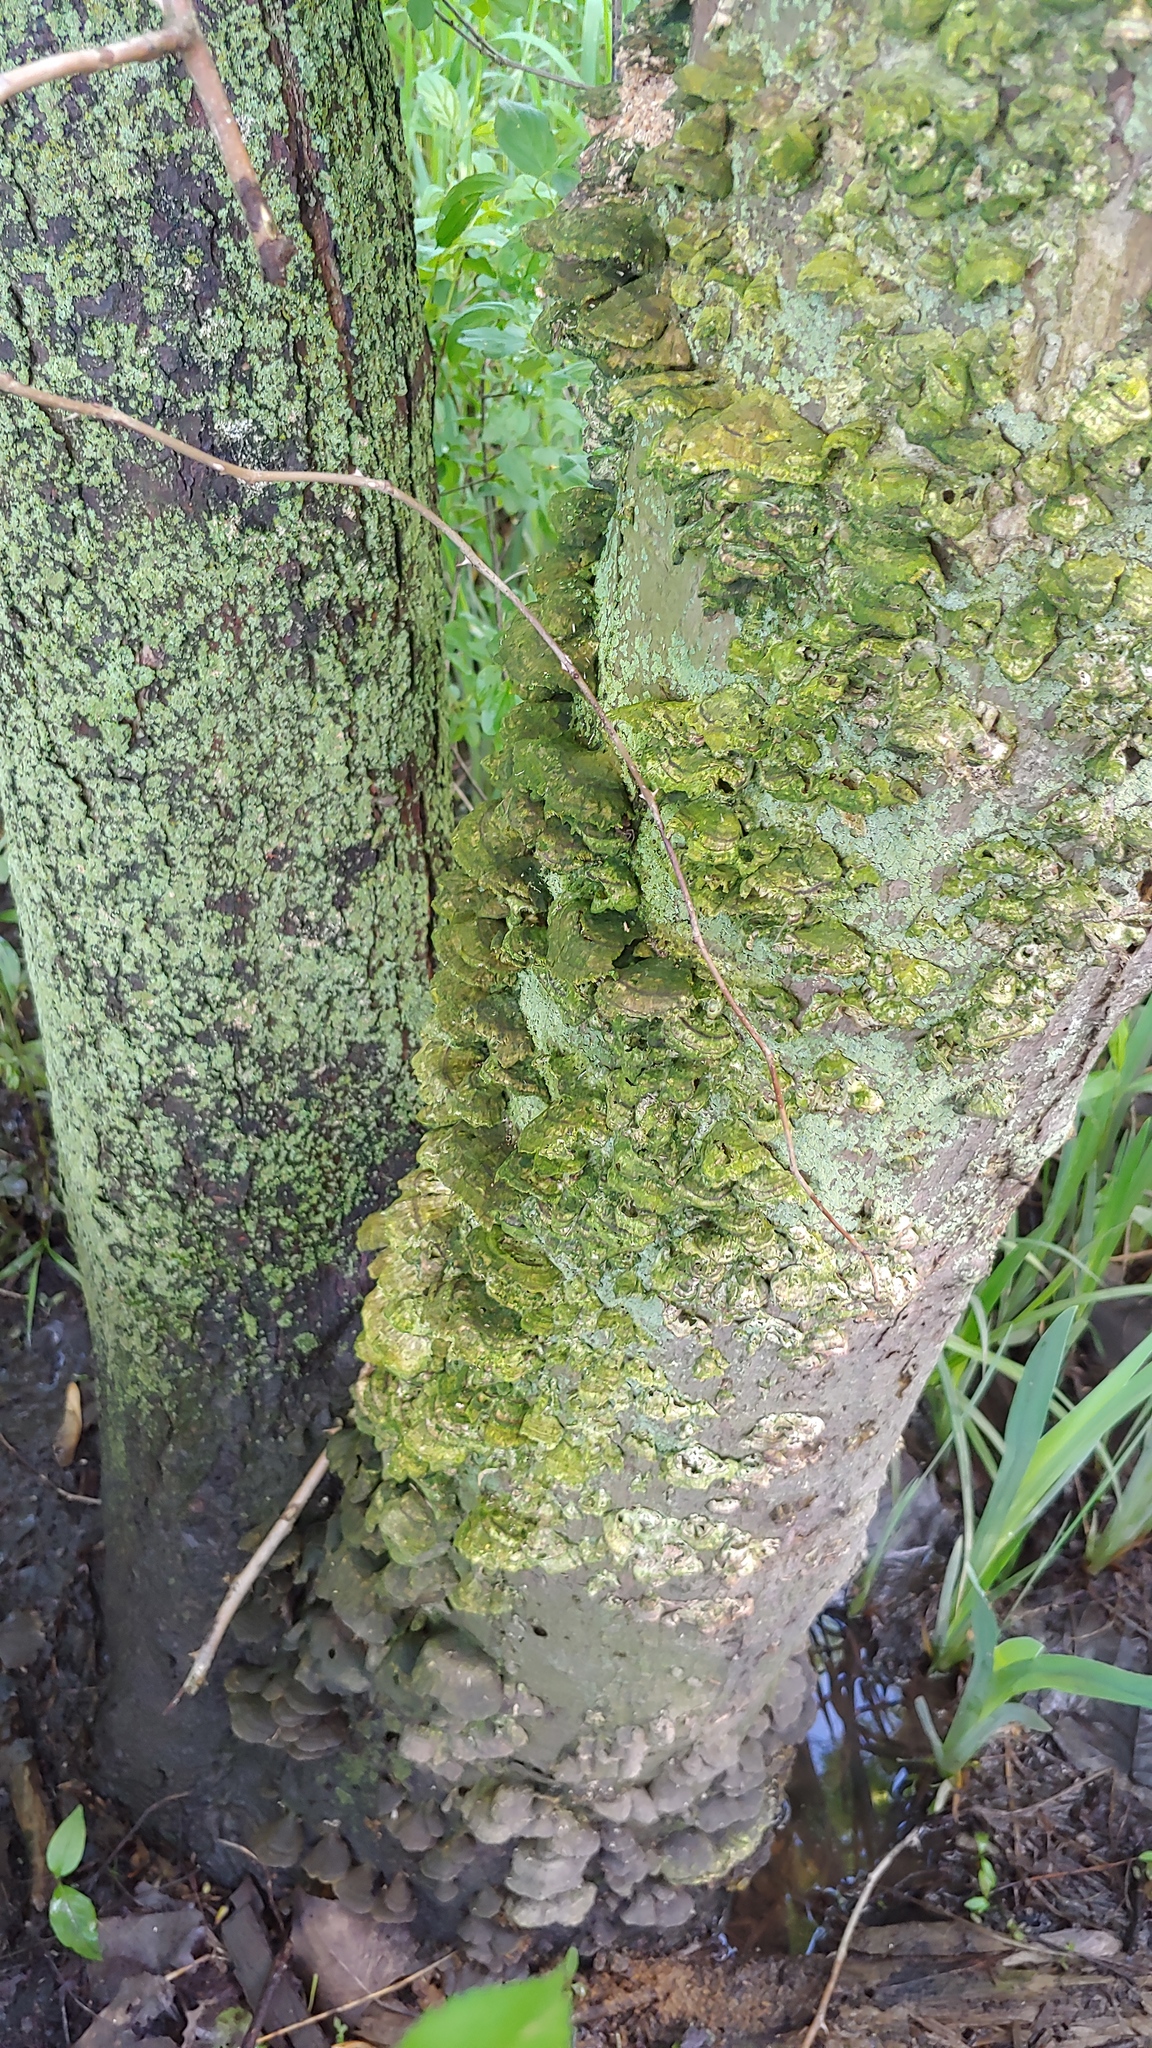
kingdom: Fungi
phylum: Basidiomycota
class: Agaricomycetes
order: Polyporales
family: Cerrenaceae
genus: Cerrena
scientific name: Cerrena unicolor
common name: Mossy maze polypore
